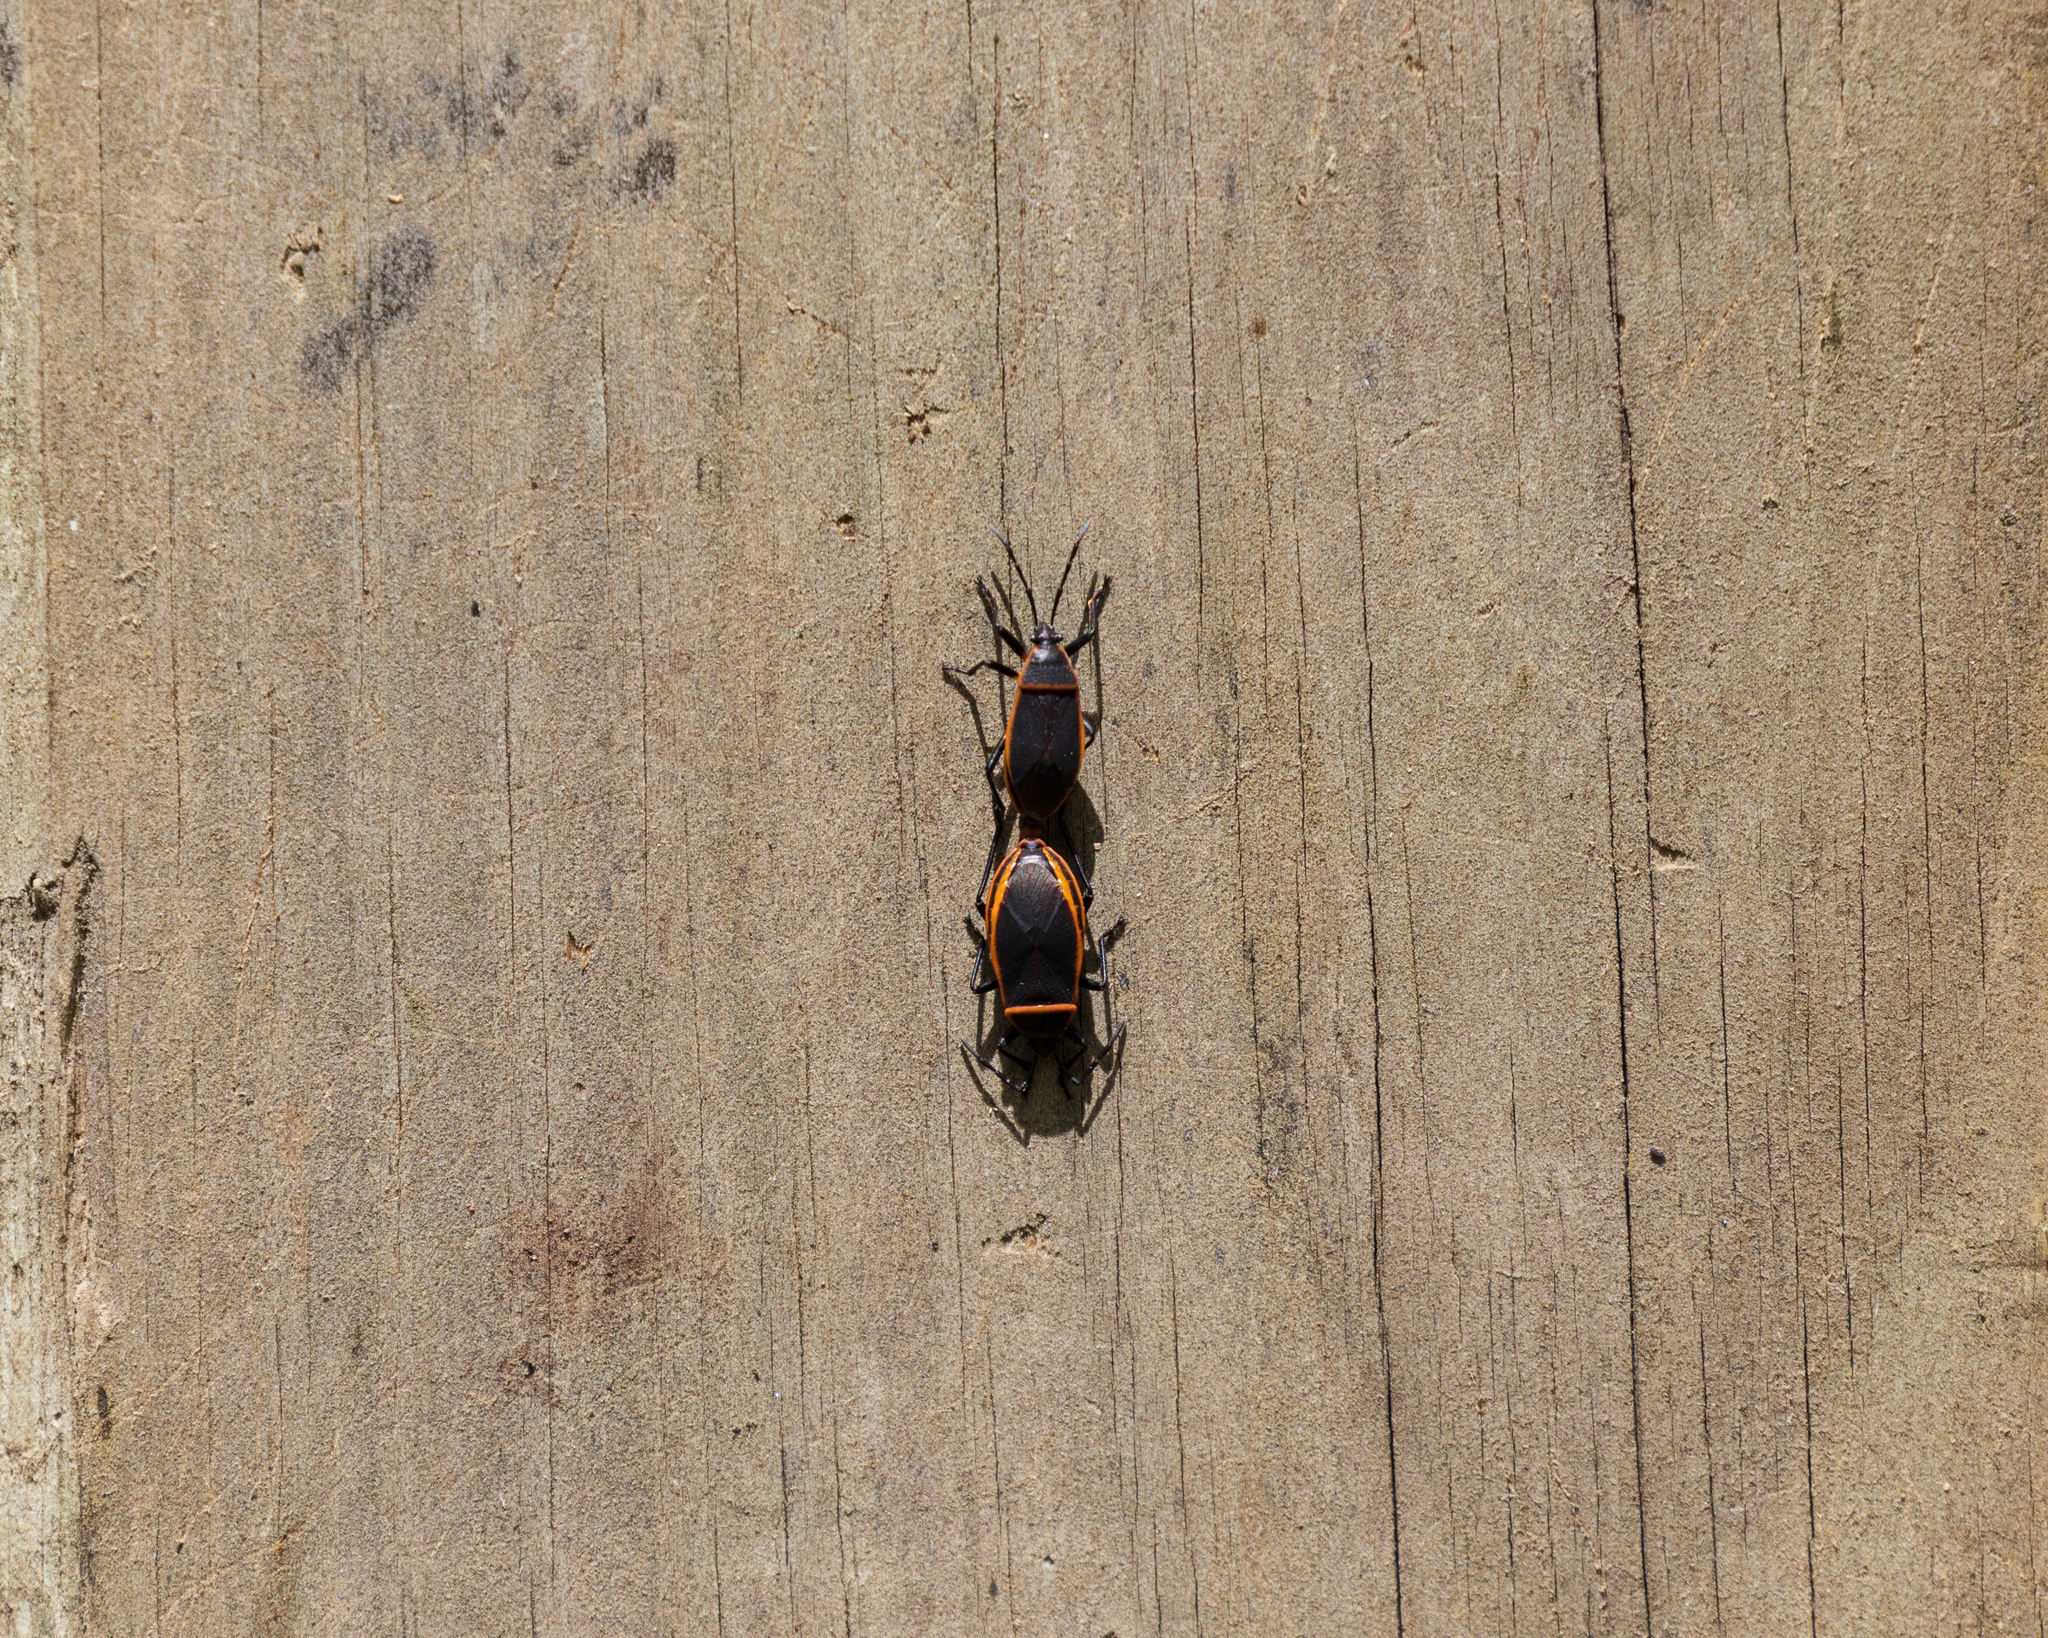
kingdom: Animalia
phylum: Arthropoda
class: Insecta
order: Hemiptera
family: Largidae
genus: Largus
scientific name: Largus succinctus
